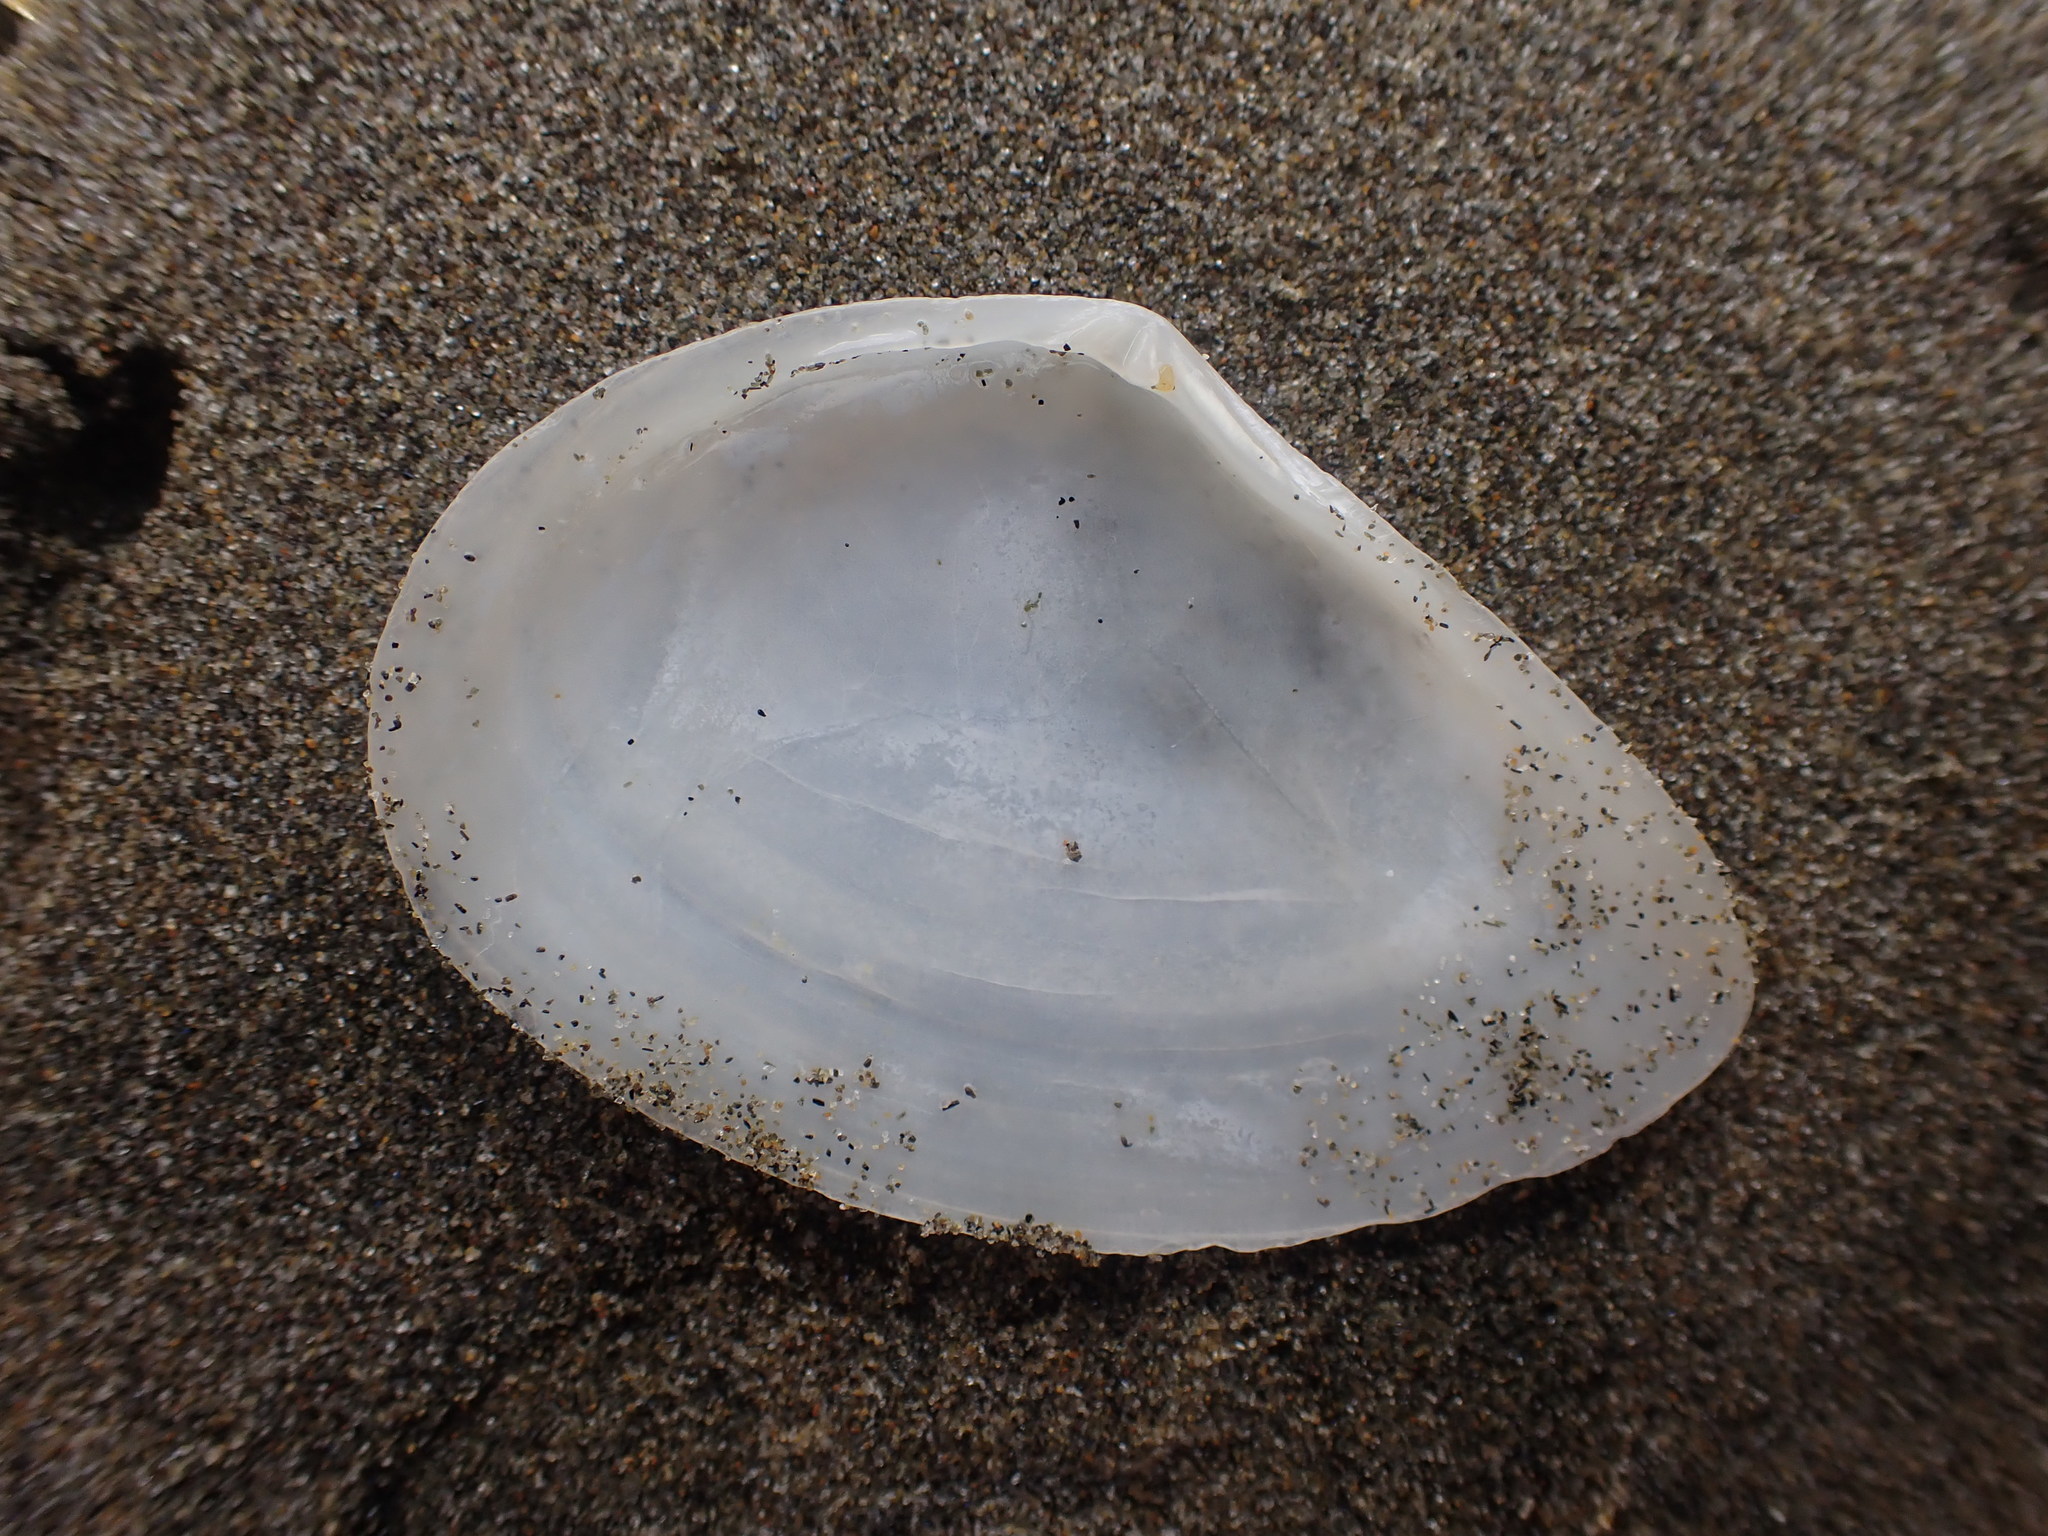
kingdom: Animalia
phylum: Mollusca
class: Bivalvia
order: Cardiida
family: Tellinidae
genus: Bartschicoma
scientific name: Bartschicoma gaimardi
